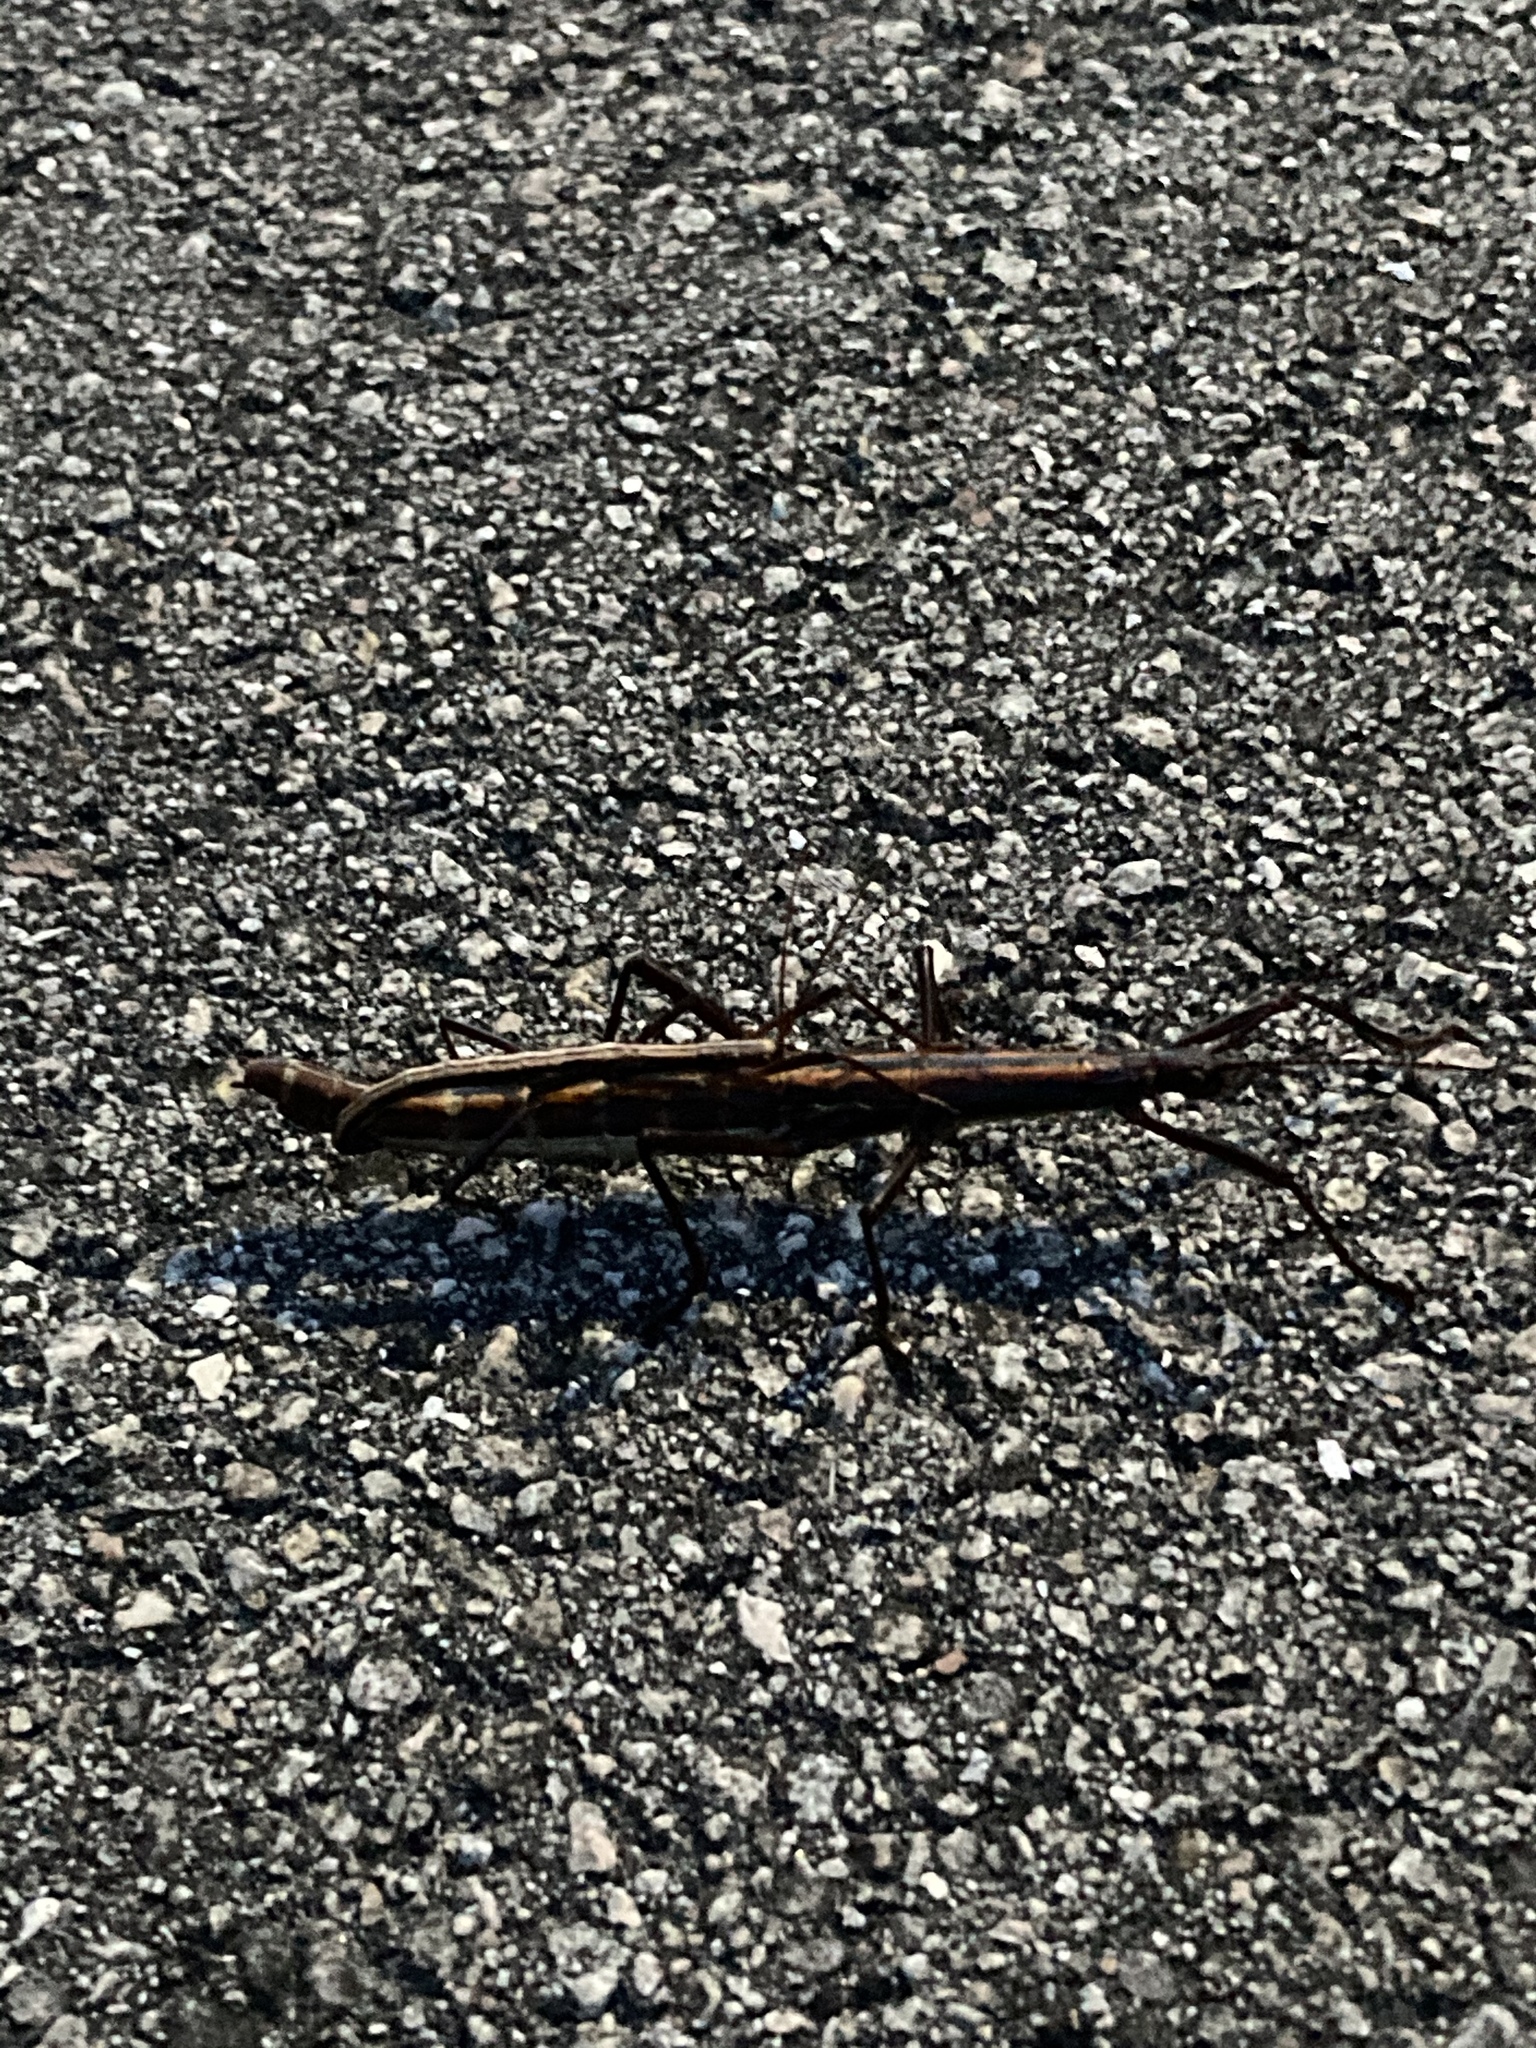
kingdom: Animalia
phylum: Arthropoda
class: Insecta
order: Phasmida
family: Pseudophasmatidae
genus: Anisomorpha
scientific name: Anisomorpha buprestoides
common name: Florida stick insect
